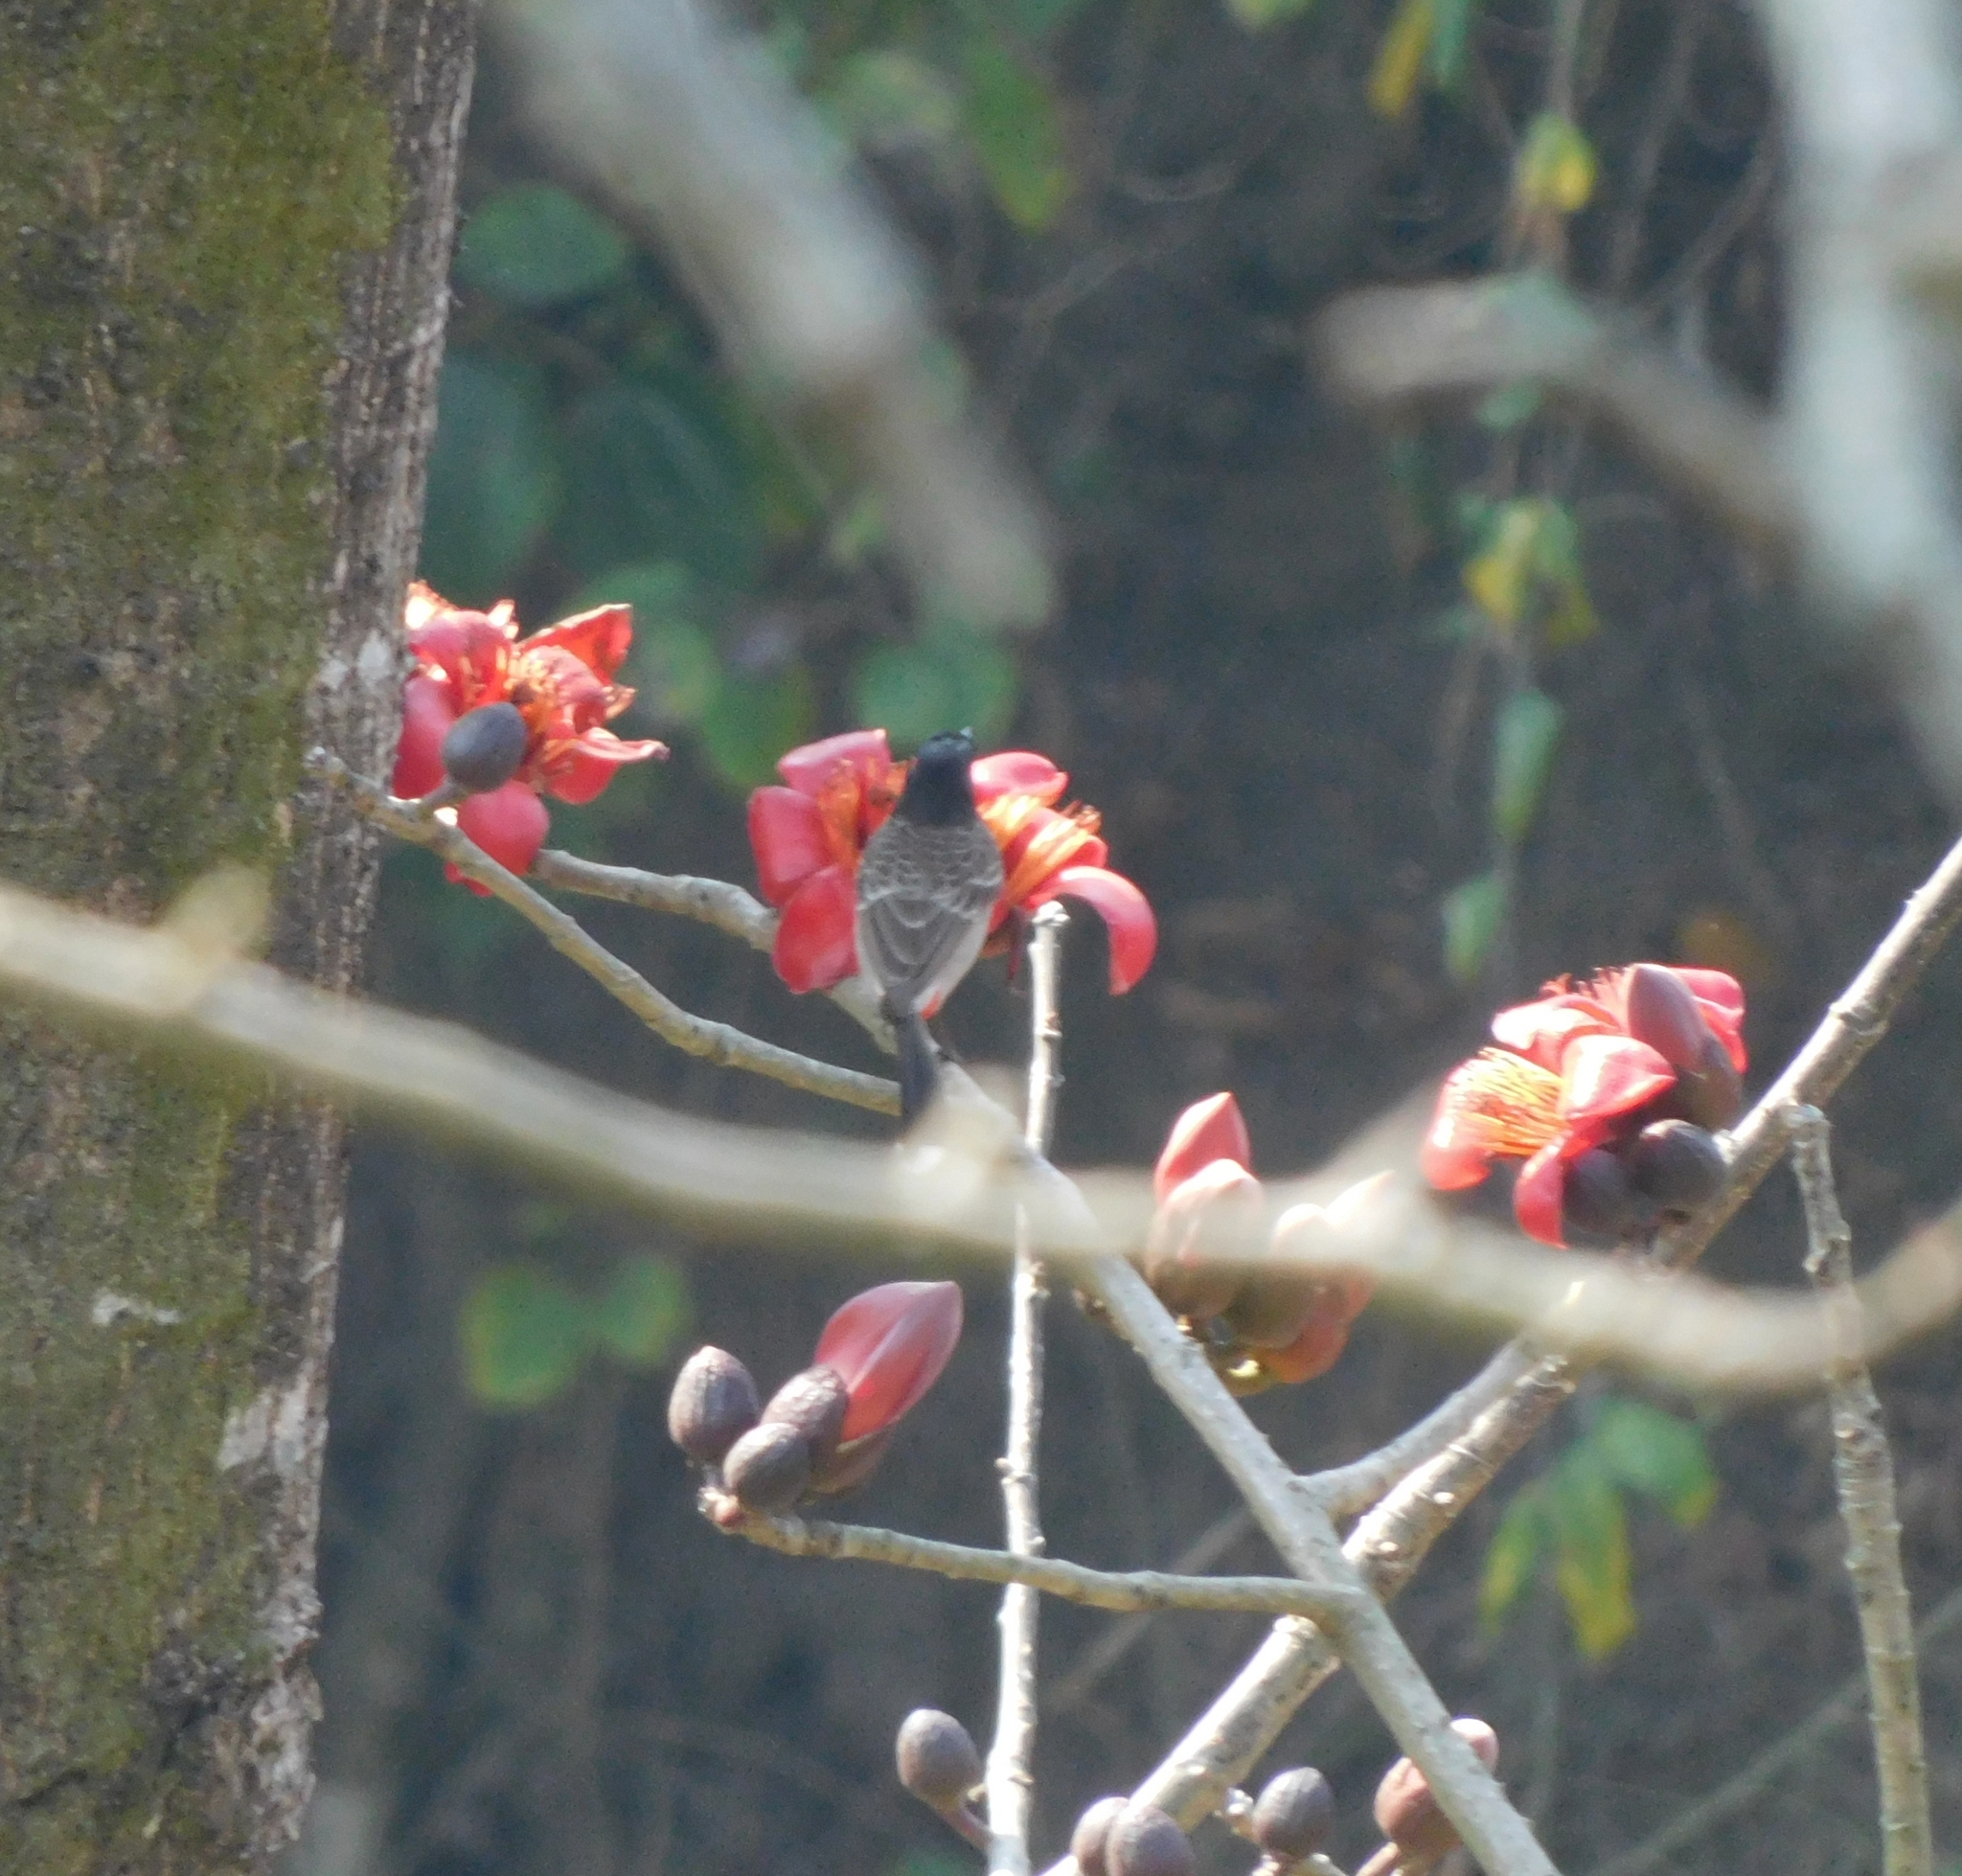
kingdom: Animalia
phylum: Chordata
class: Aves
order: Passeriformes
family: Pycnonotidae
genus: Pycnonotus
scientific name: Pycnonotus cafer
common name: Red-vented bulbul
